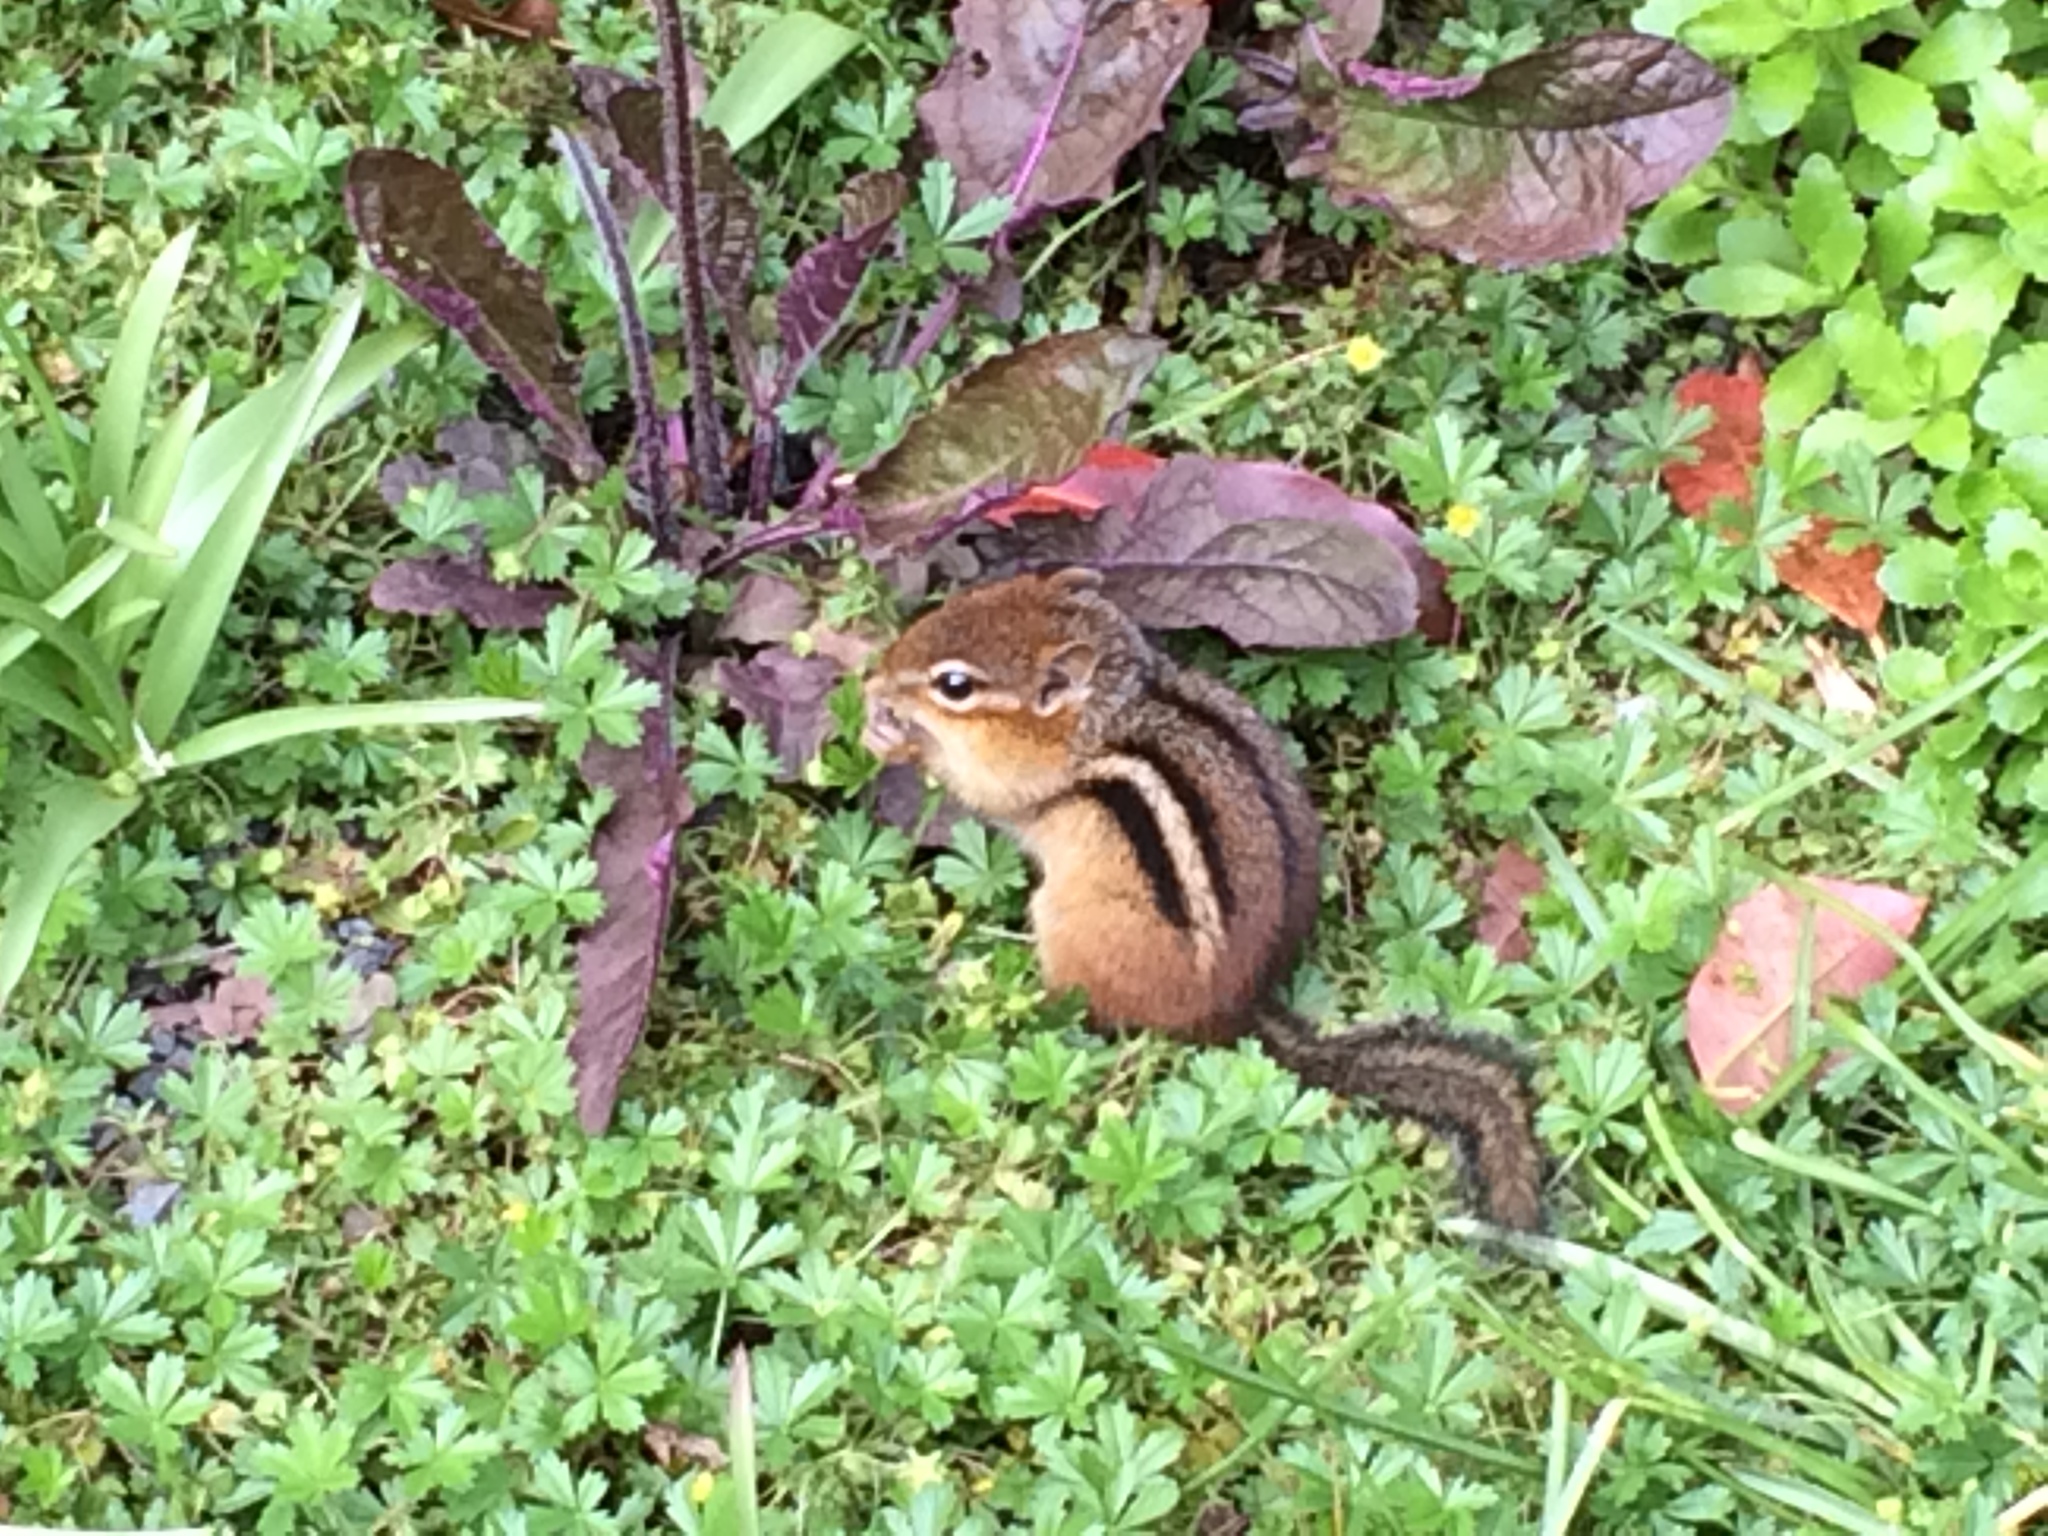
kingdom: Animalia
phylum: Chordata
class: Mammalia
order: Rodentia
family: Sciuridae
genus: Tamias
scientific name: Tamias striatus
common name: Eastern chipmunk
